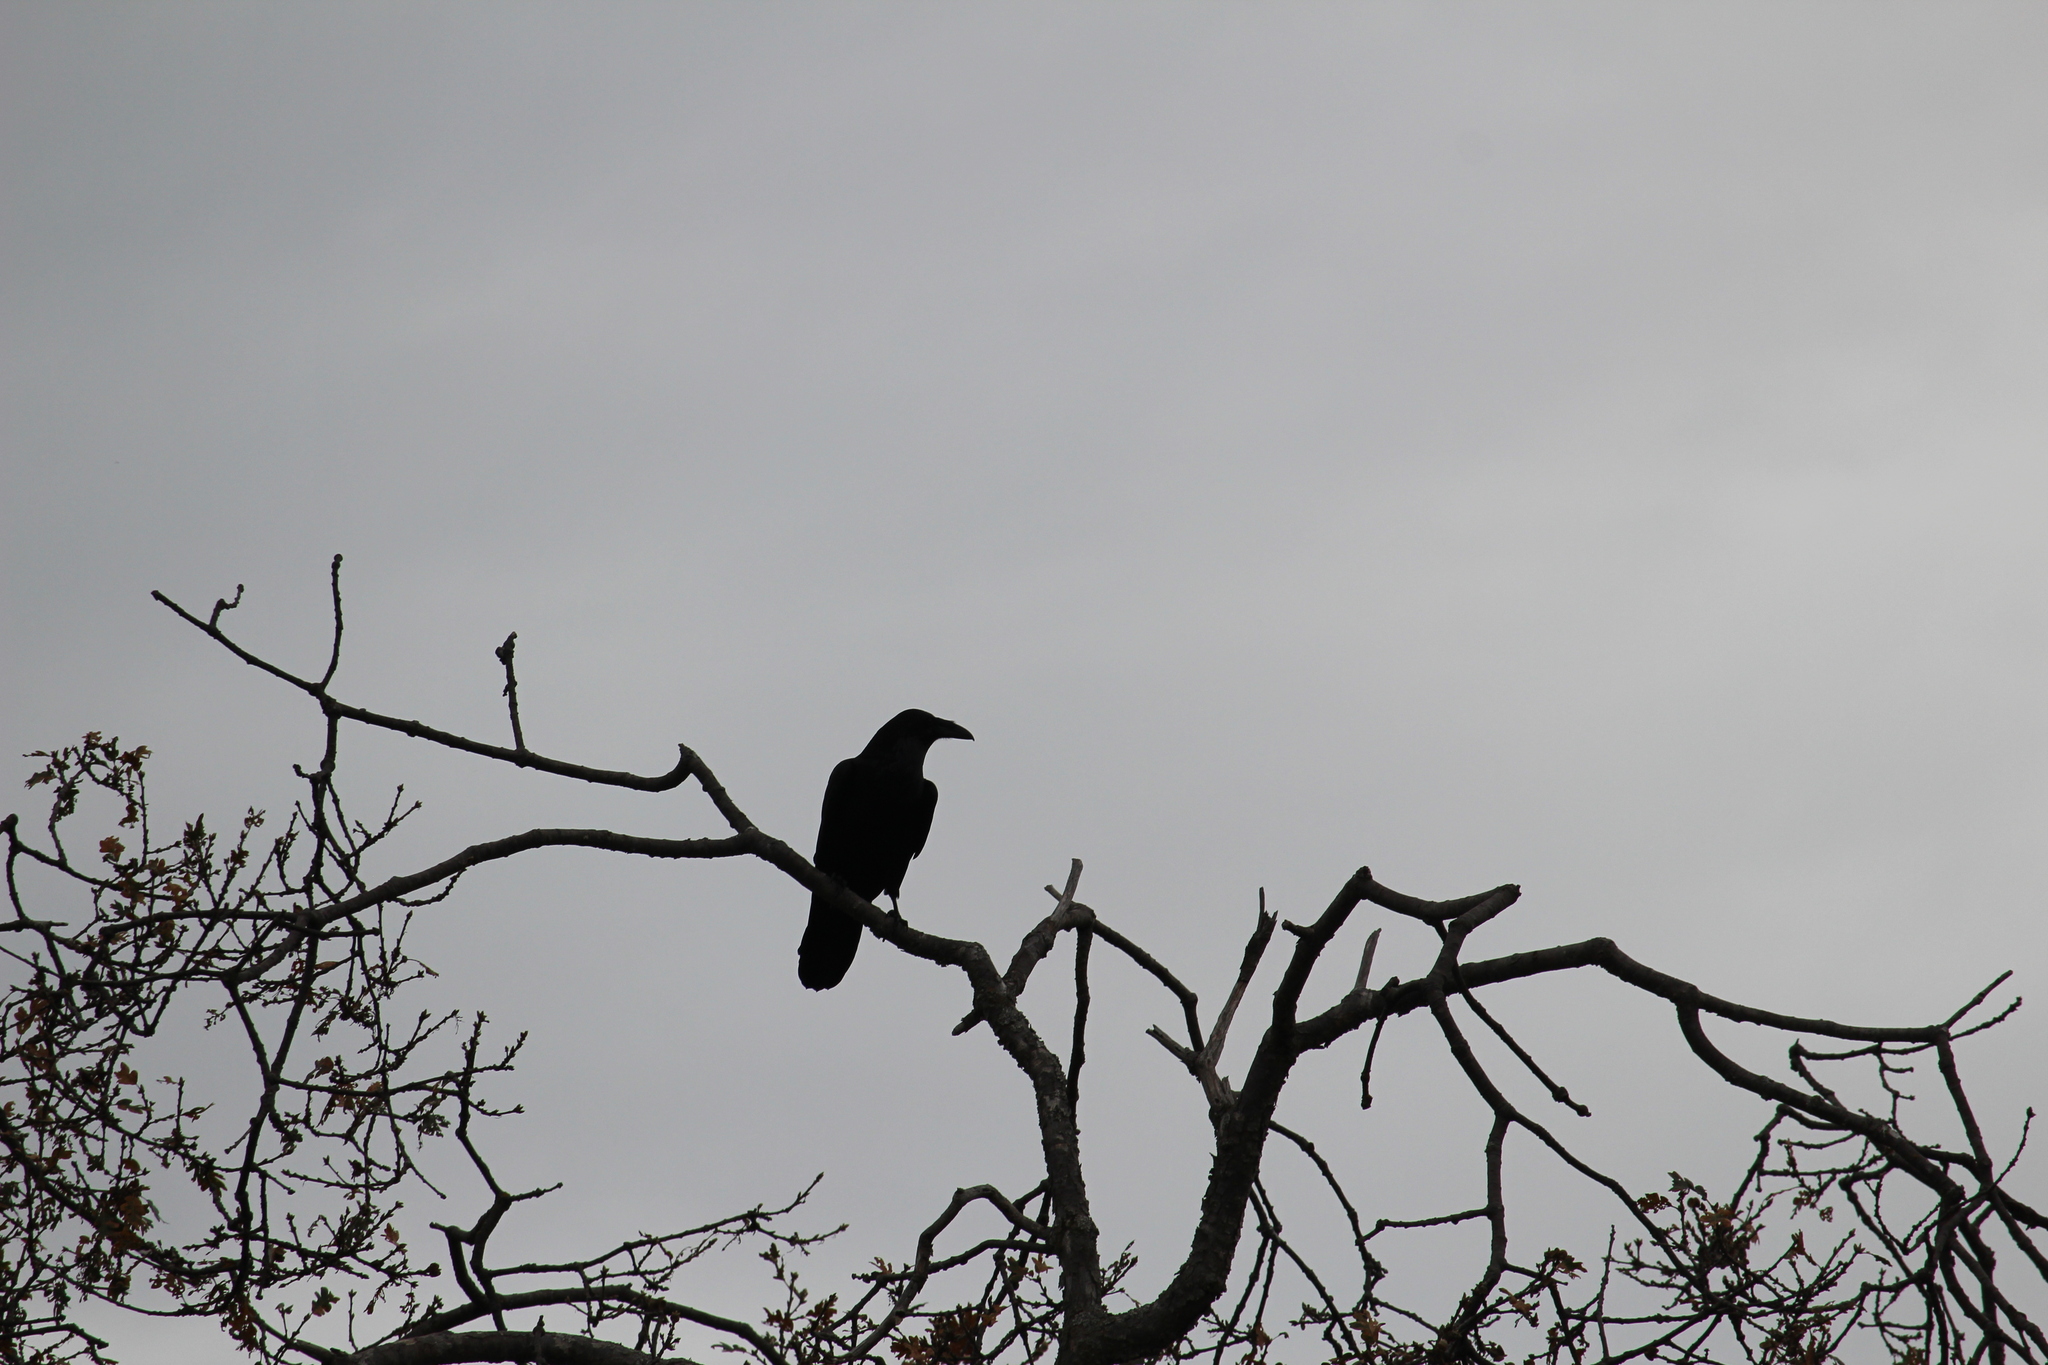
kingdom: Animalia
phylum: Chordata
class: Aves
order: Passeriformes
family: Corvidae
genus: Corvus
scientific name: Corvus corax
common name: Common raven
